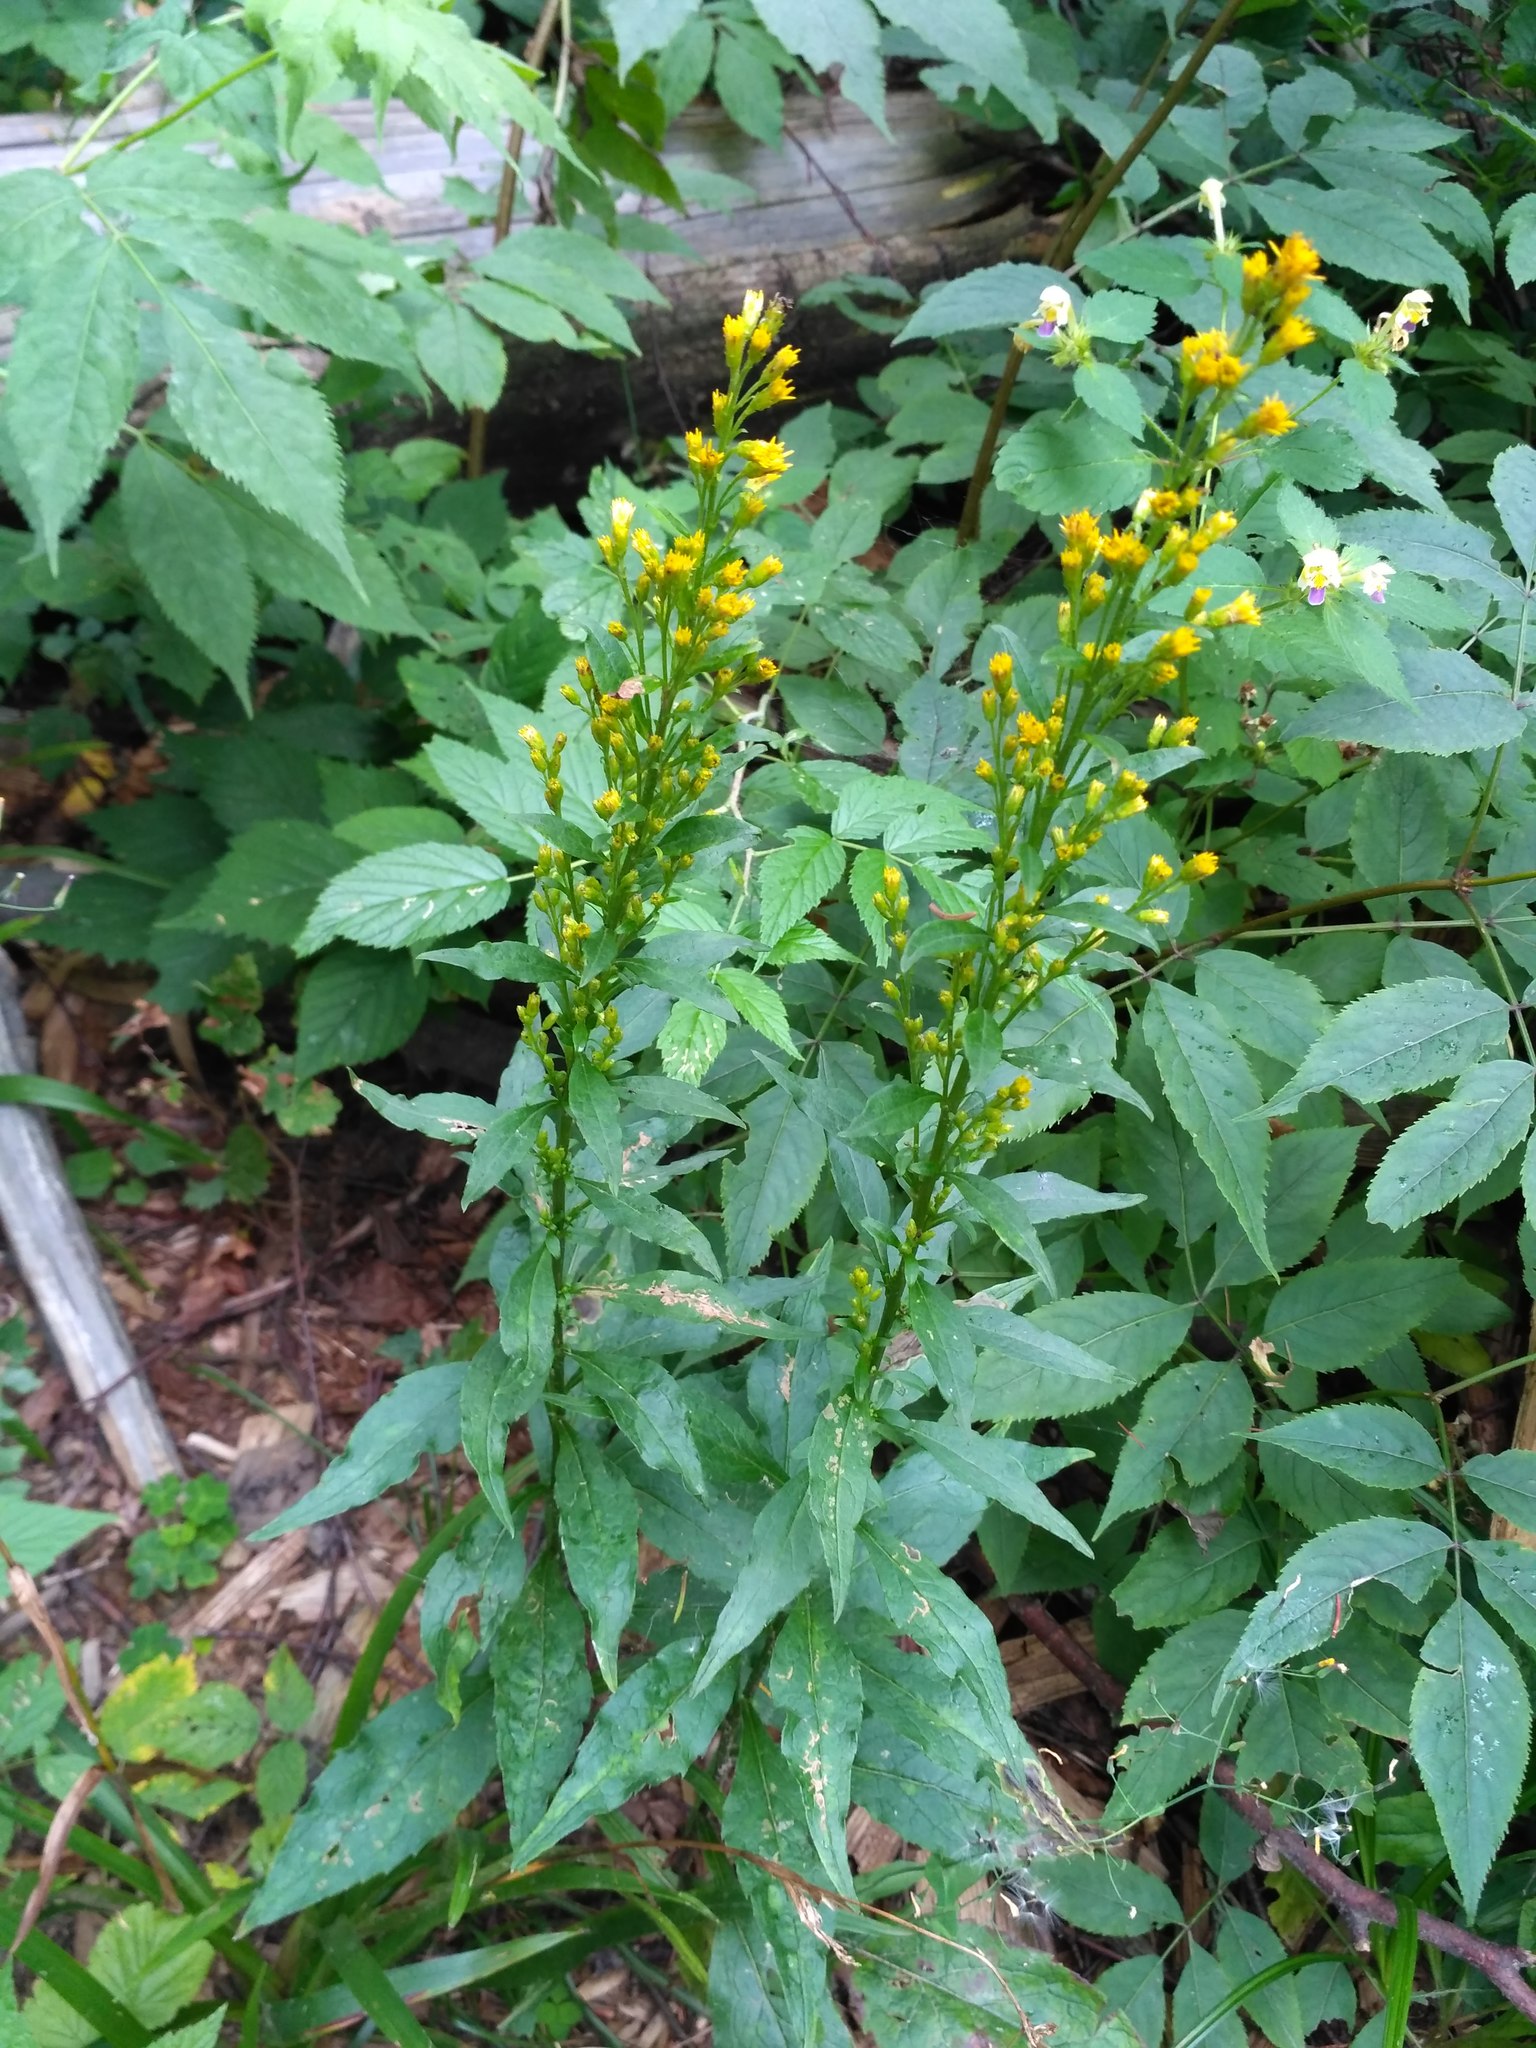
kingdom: Plantae
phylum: Tracheophyta
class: Magnoliopsida
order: Asterales
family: Asteraceae
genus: Solidago
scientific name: Solidago virgaurea
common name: Goldenrod
